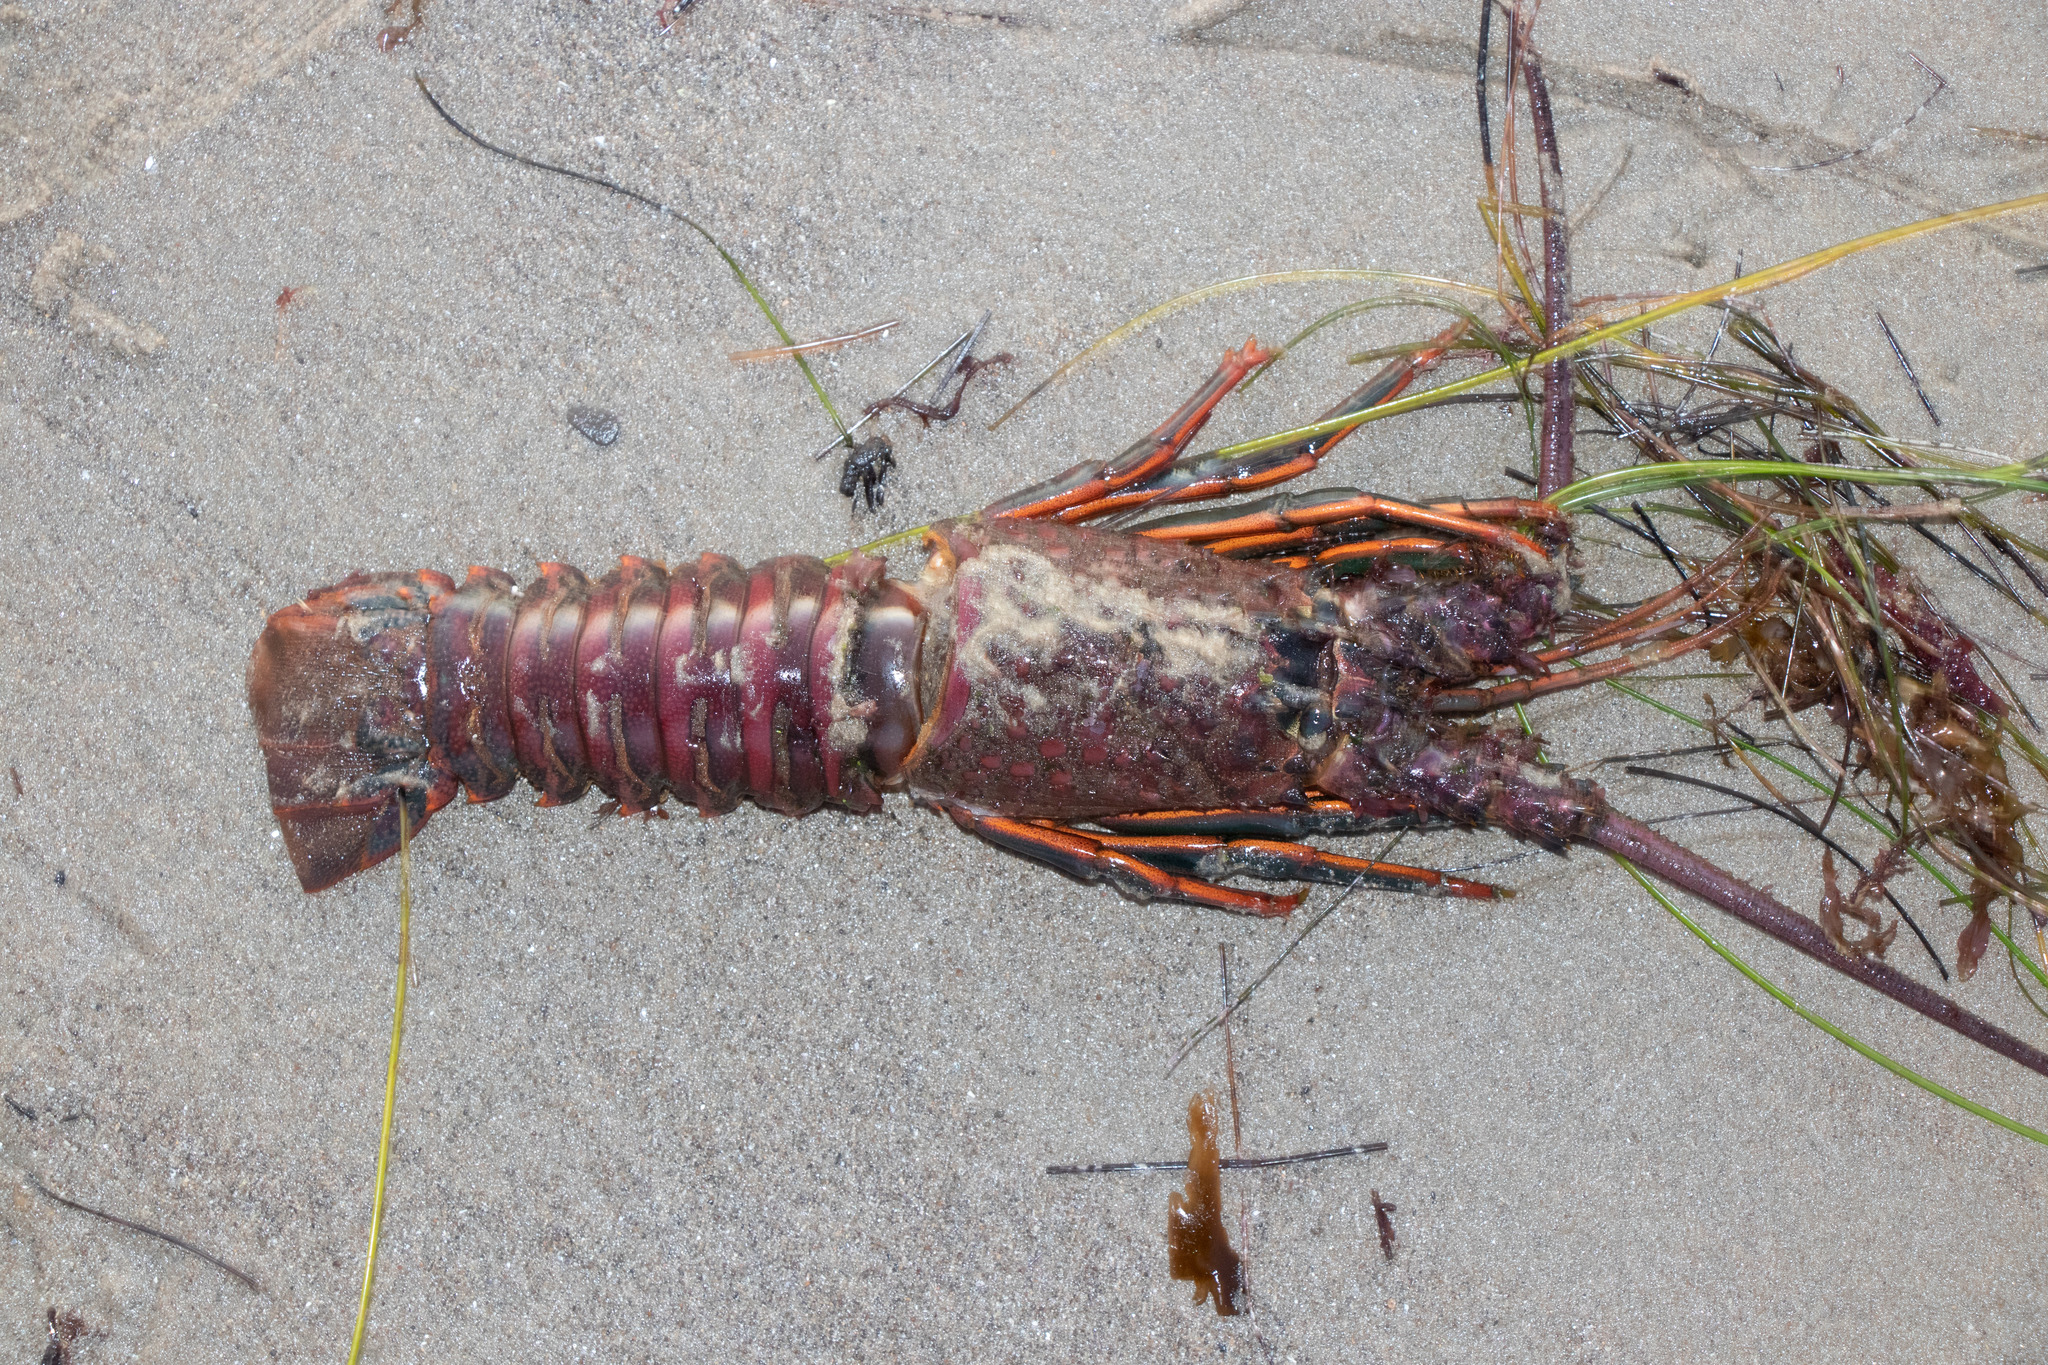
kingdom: Animalia
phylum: Arthropoda
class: Malacostraca
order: Decapoda
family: Palinuridae
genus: Panulirus
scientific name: Panulirus interruptus
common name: California spiny lobster
